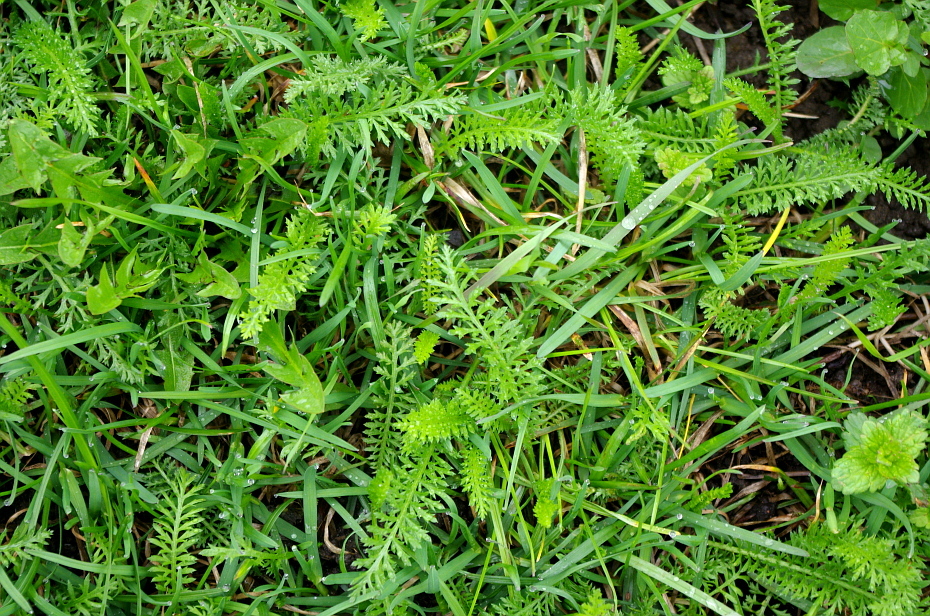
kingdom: Plantae
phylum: Tracheophyta
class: Magnoliopsida
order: Asterales
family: Asteraceae
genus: Achillea
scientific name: Achillea millefolium
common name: Yarrow
